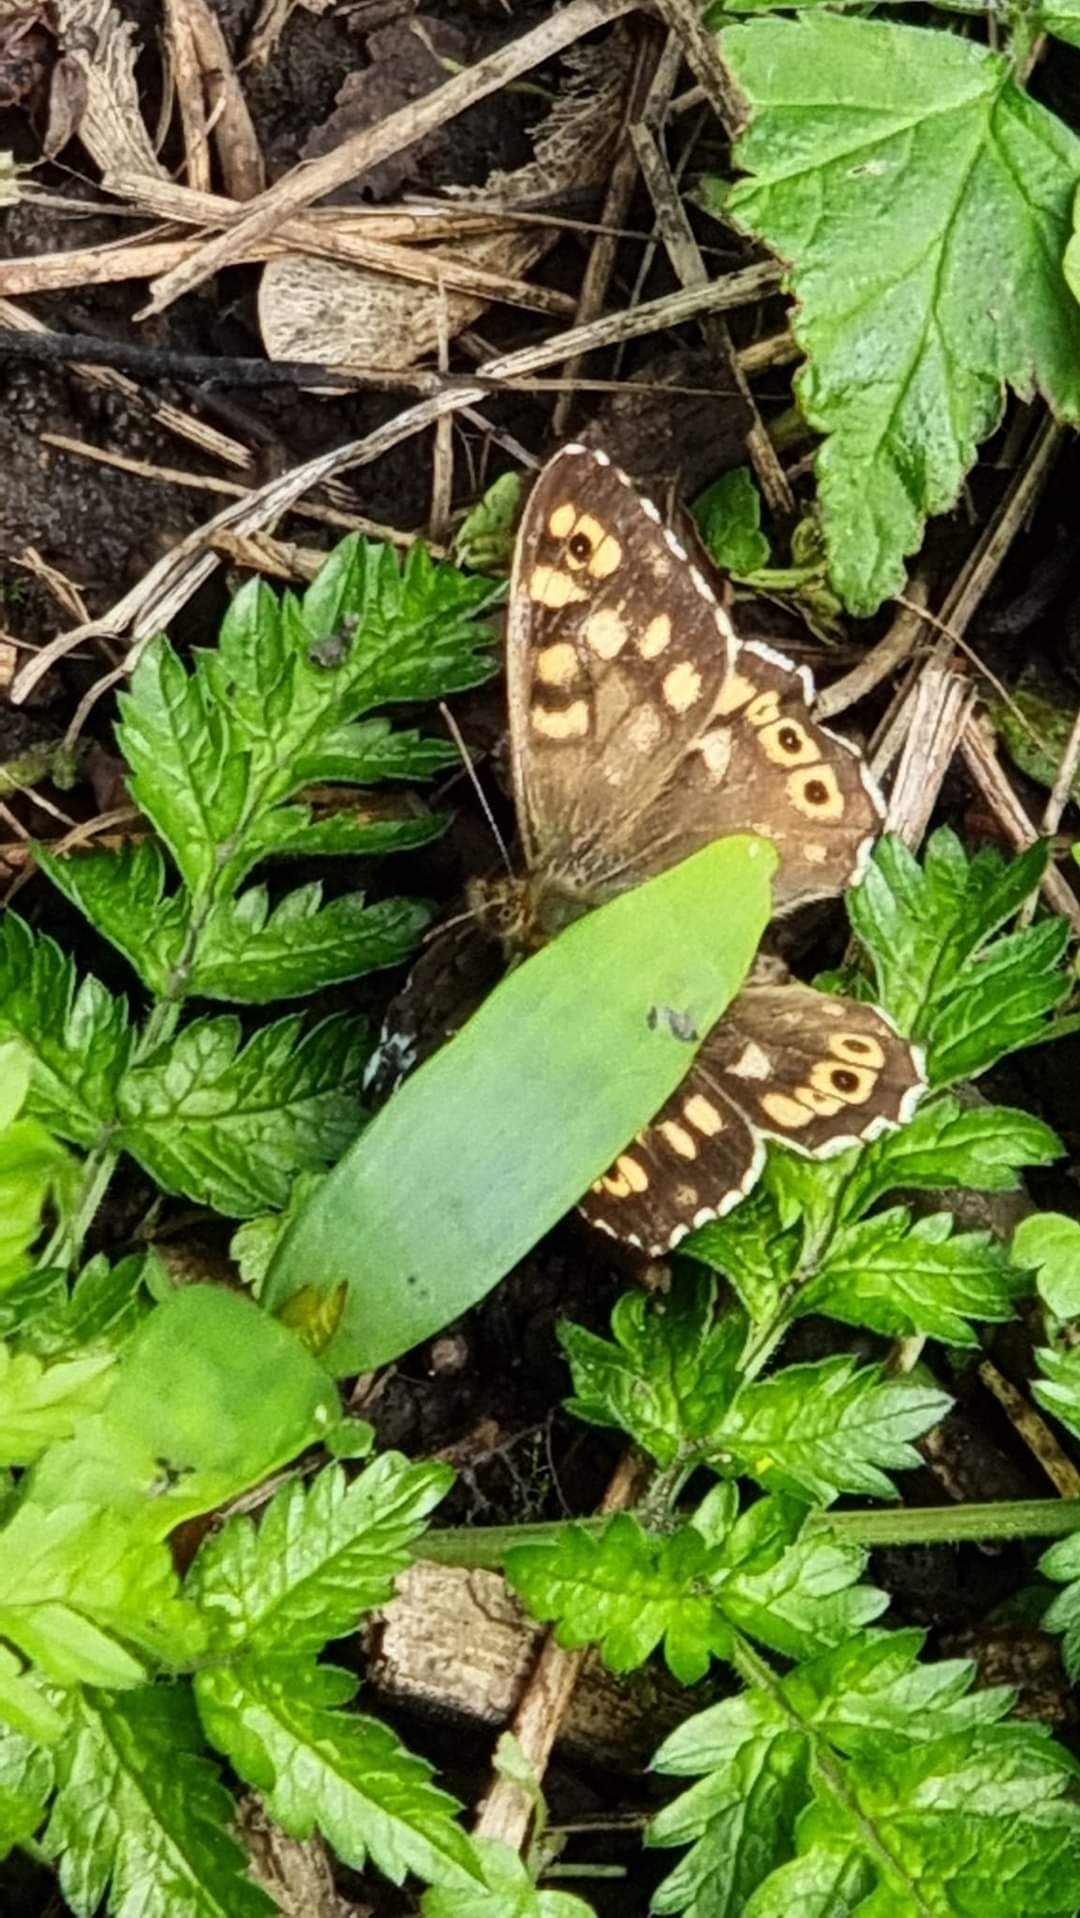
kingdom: Animalia
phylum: Arthropoda
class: Insecta
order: Lepidoptera
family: Nymphalidae
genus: Pararge
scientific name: Pararge aegeria
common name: Speckled wood
